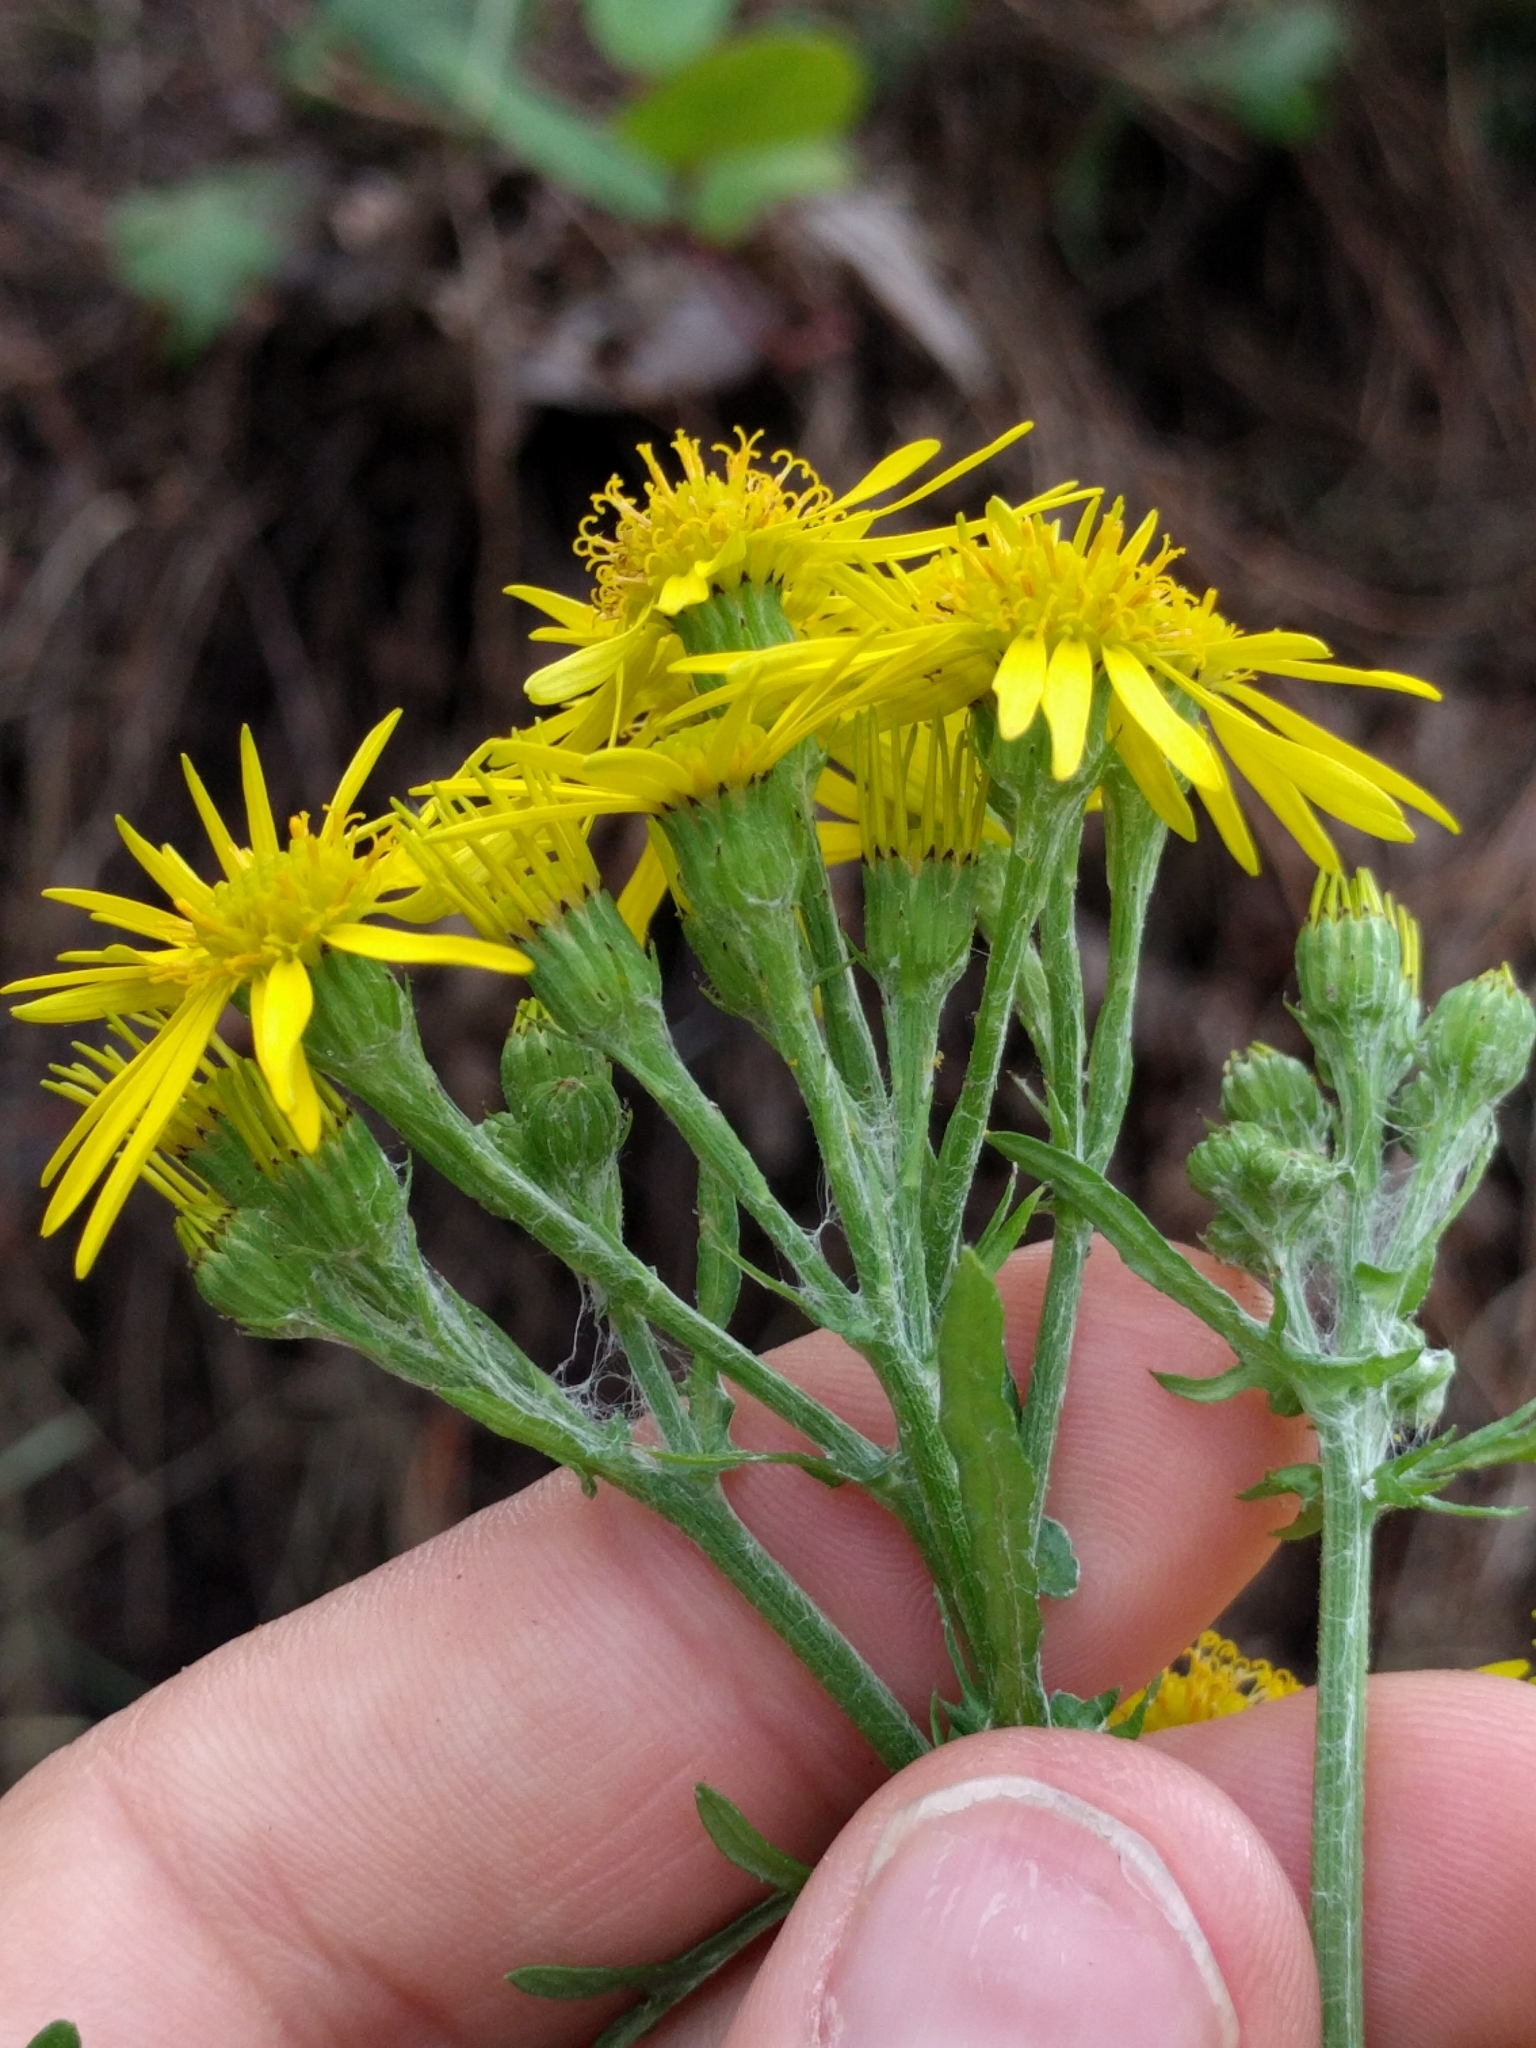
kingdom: Plantae
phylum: Tracheophyta
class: Magnoliopsida
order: Asterales
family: Asteraceae
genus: Jacobaea
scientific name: Jacobaea vulgaris
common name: Stinking willie
